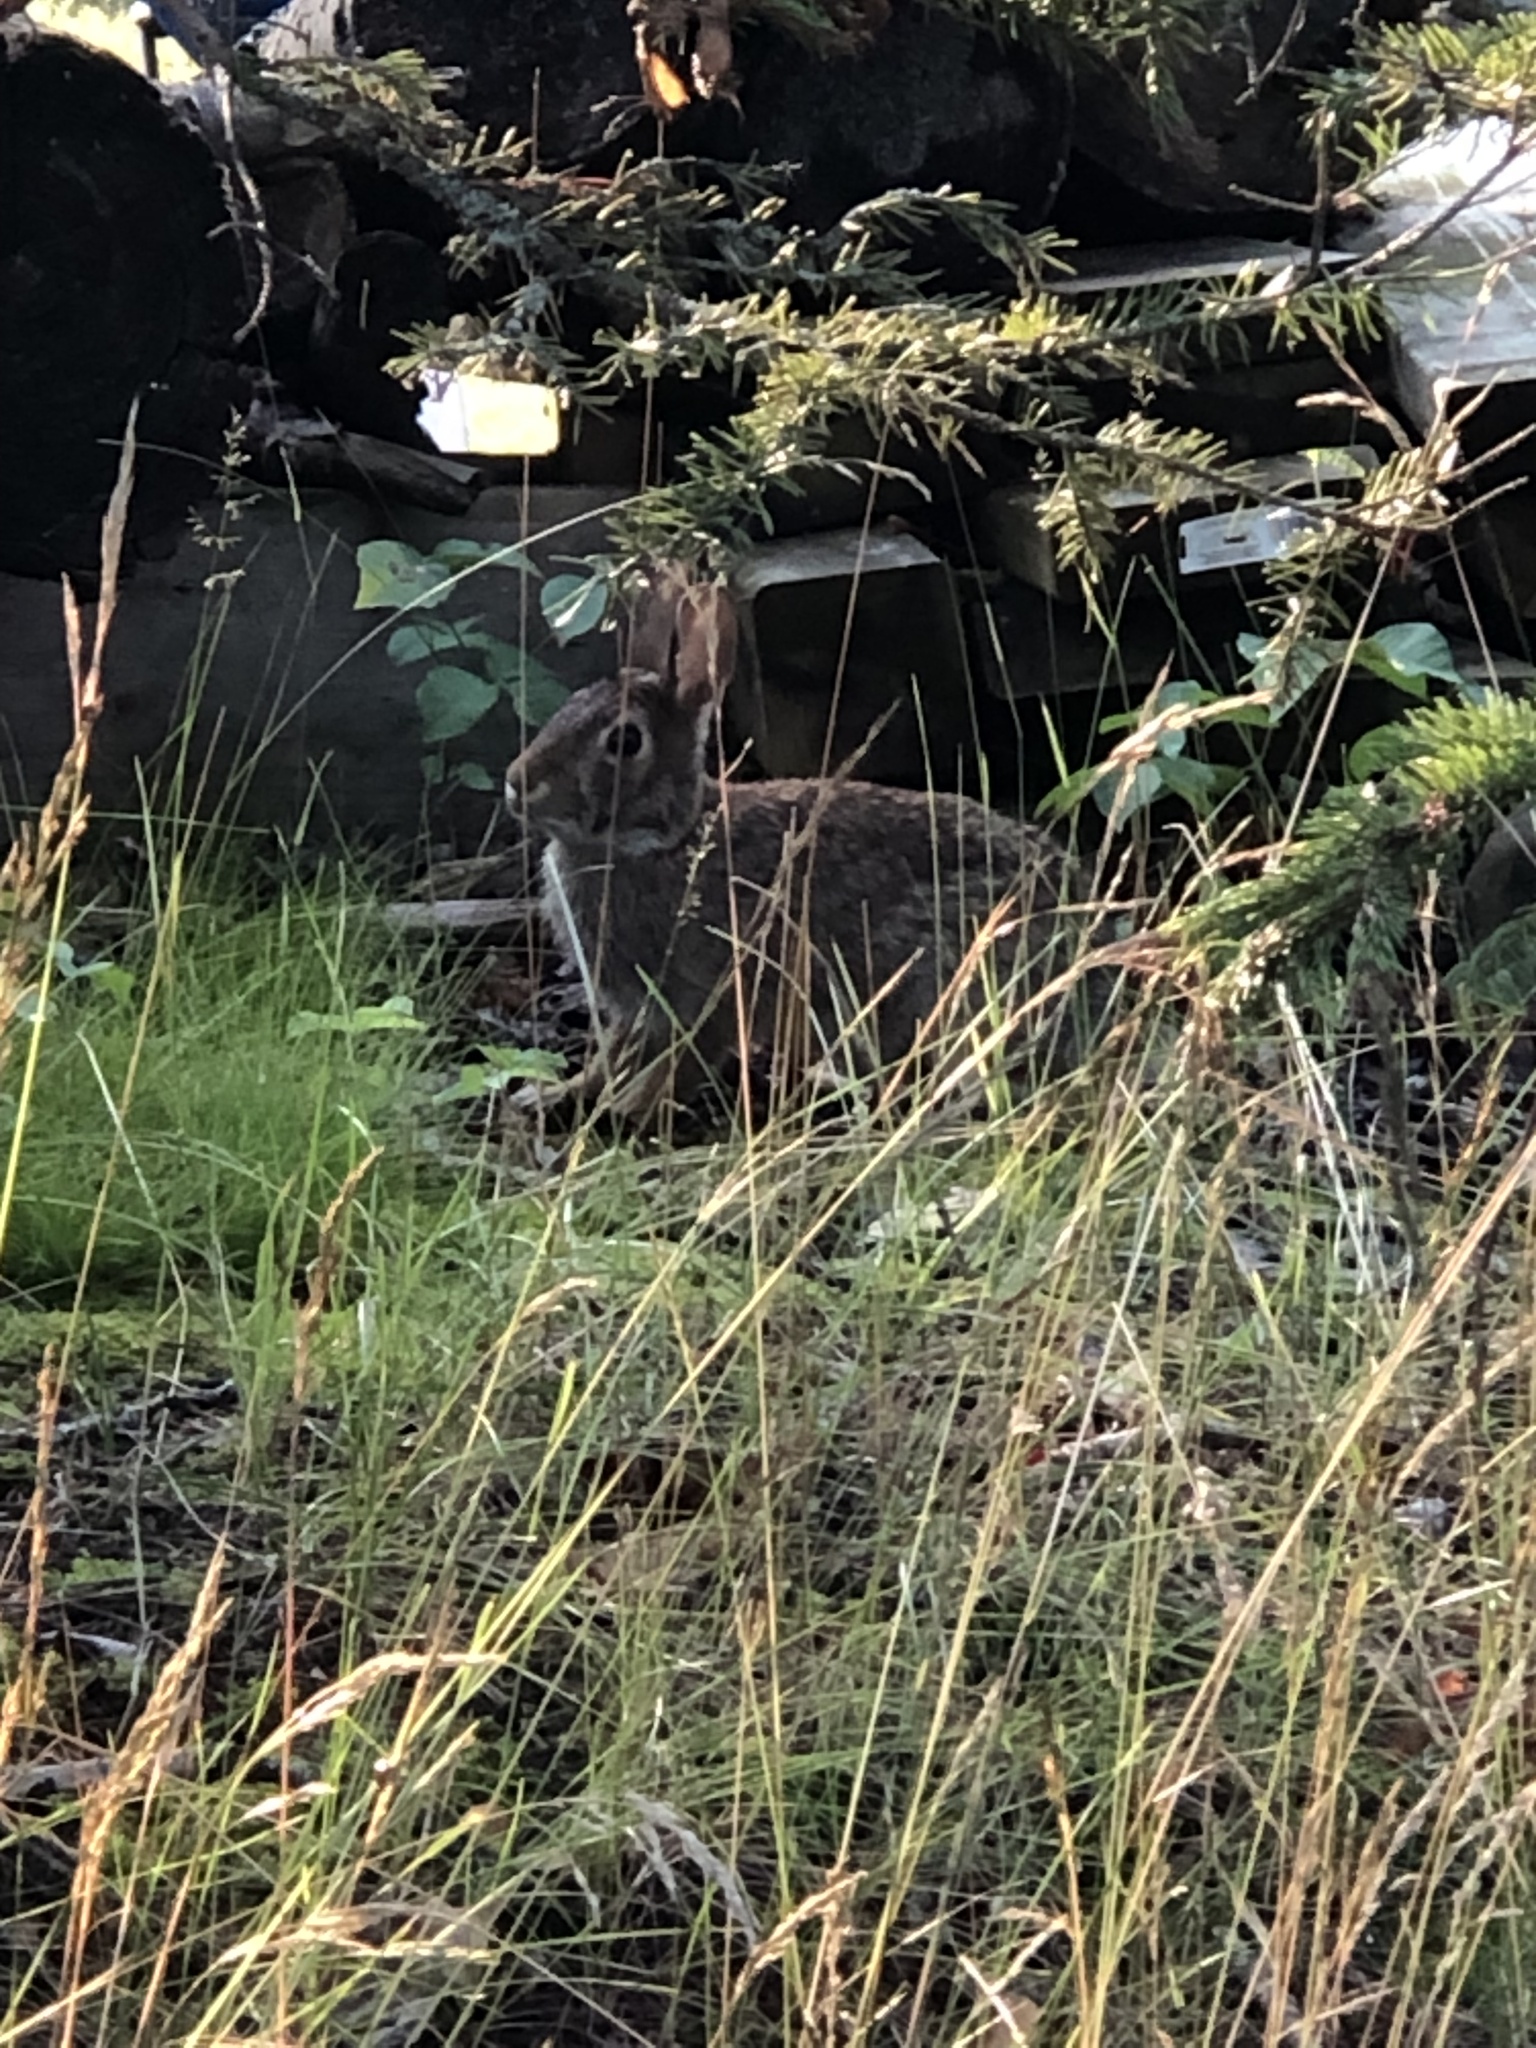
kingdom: Animalia
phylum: Chordata
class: Mammalia
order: Lagomorpha
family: Leporidae
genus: Sylvilagus
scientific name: Sylvilagus floridanus
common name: Eastern cottontail
